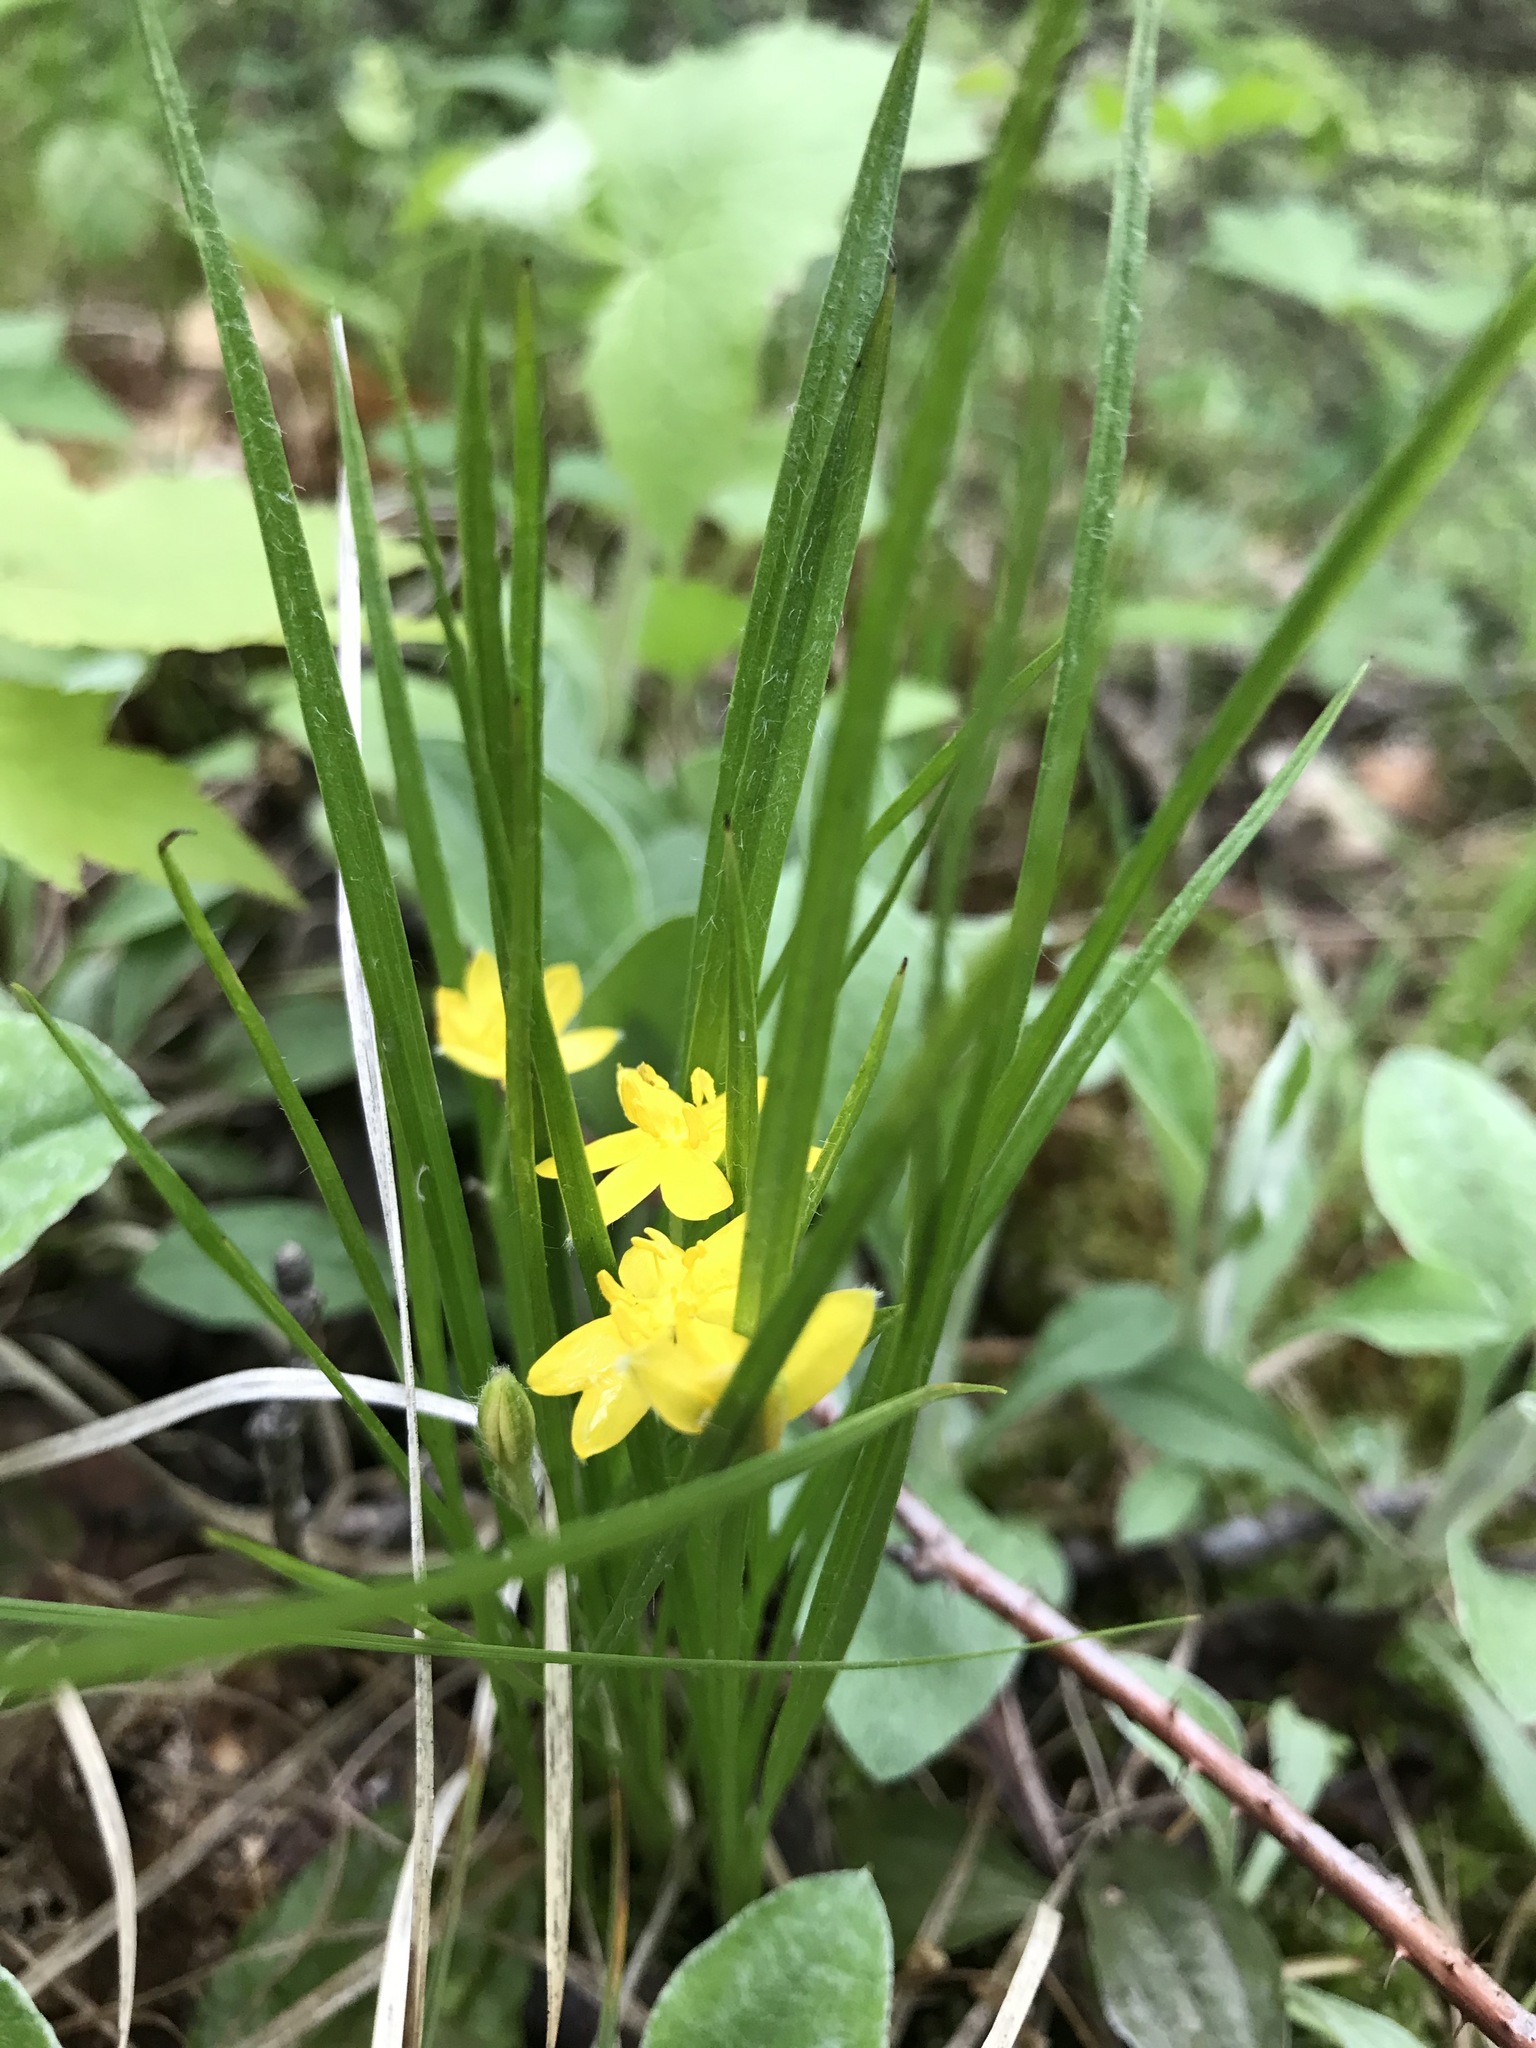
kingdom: Plantae
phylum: Tracheophyta
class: Liliopsida
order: Asparagales
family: Hypoxidaceae
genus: Hypoxis
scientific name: Hypoxis hirsuta
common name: Common goldstar
